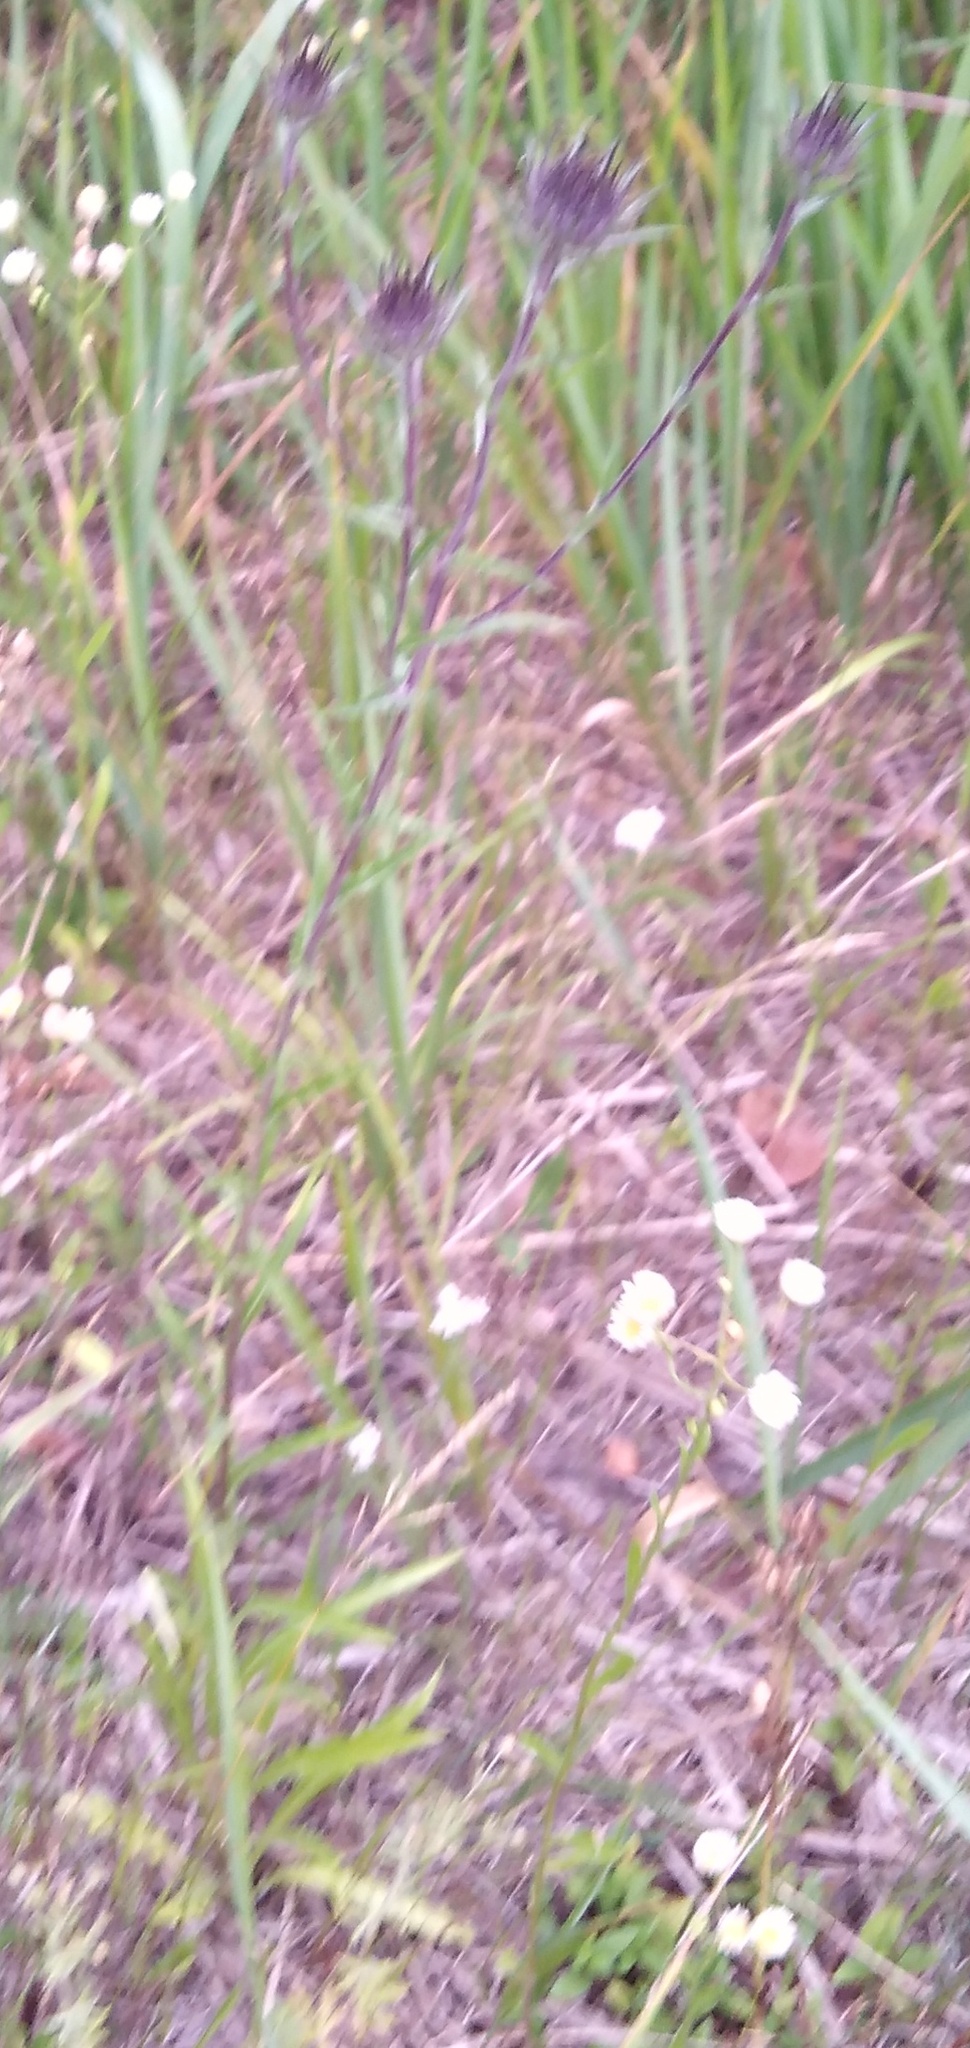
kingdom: Plantae
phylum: Tracheophyta
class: Magnoliopsida
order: Asterales
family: Asteraceae
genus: Carlina
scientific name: Carlina biebersteinii
